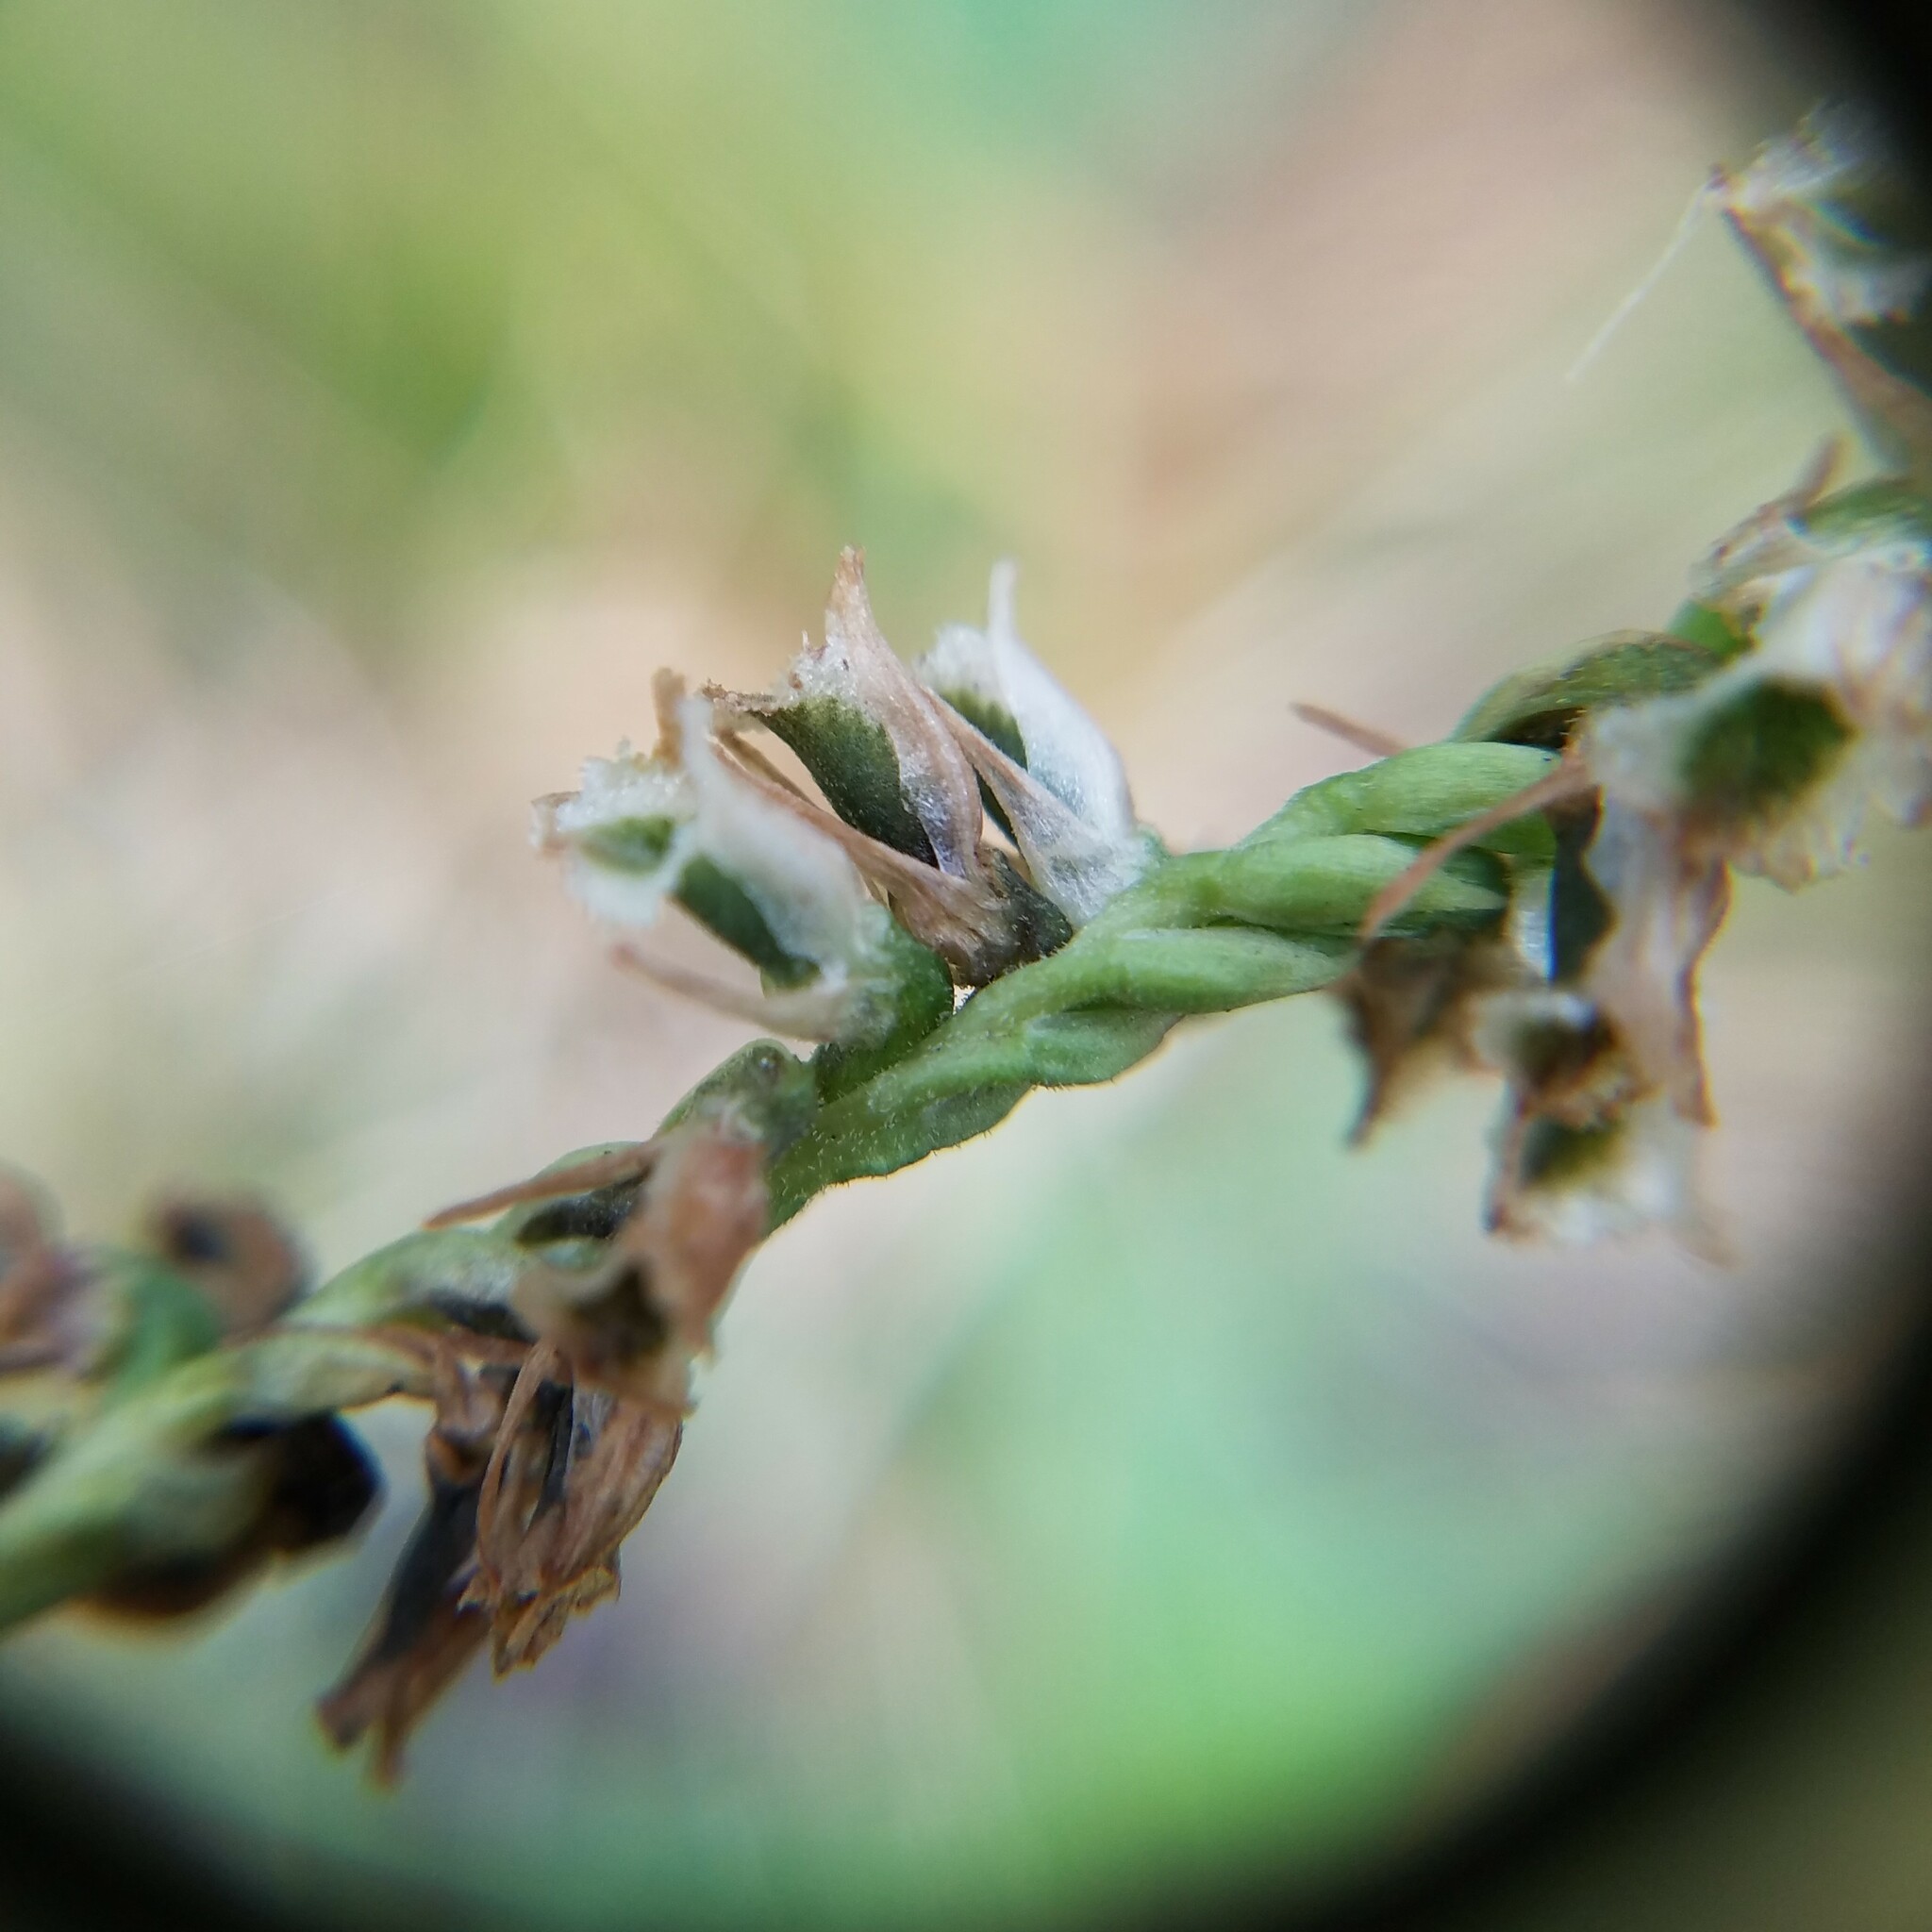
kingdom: Plantae
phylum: Tracheophyta
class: Liliopsida
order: Asparagales
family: Orchidaceae
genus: Spiranthes
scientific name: Spiranthes lacera
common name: Northern slender ladies'-tresses
